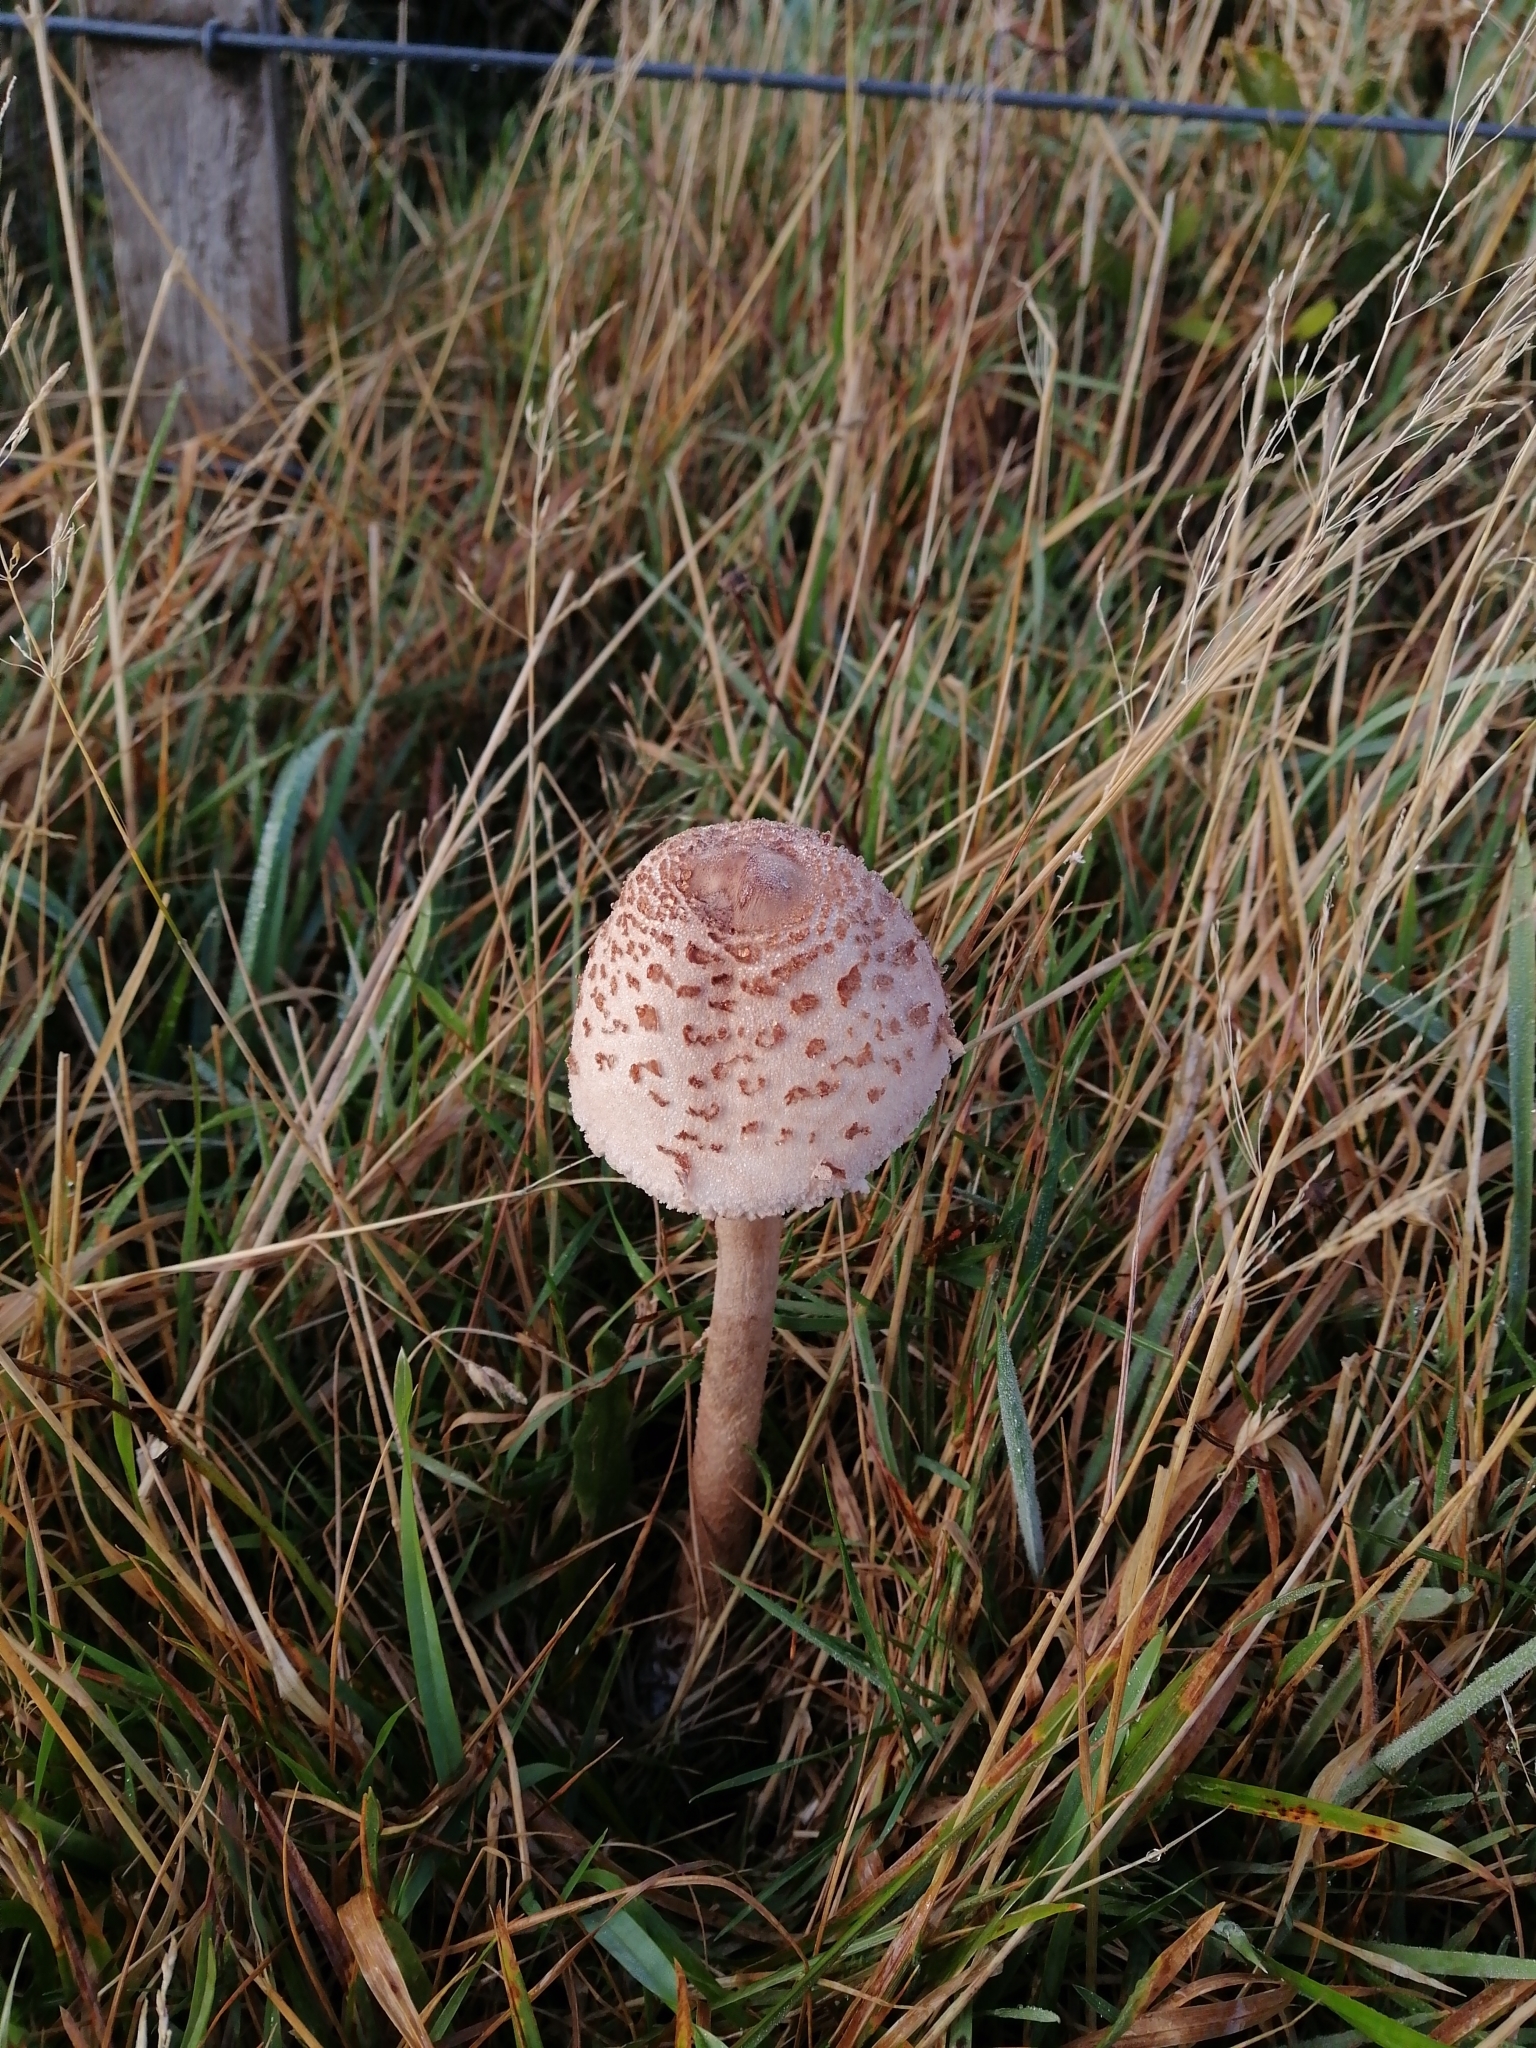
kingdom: Fungi
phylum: Basidiomycota
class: Agaricomycetes
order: Agaricales
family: Agaricaceae
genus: Macrolepiota
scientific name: Macrolepiota clelandii
